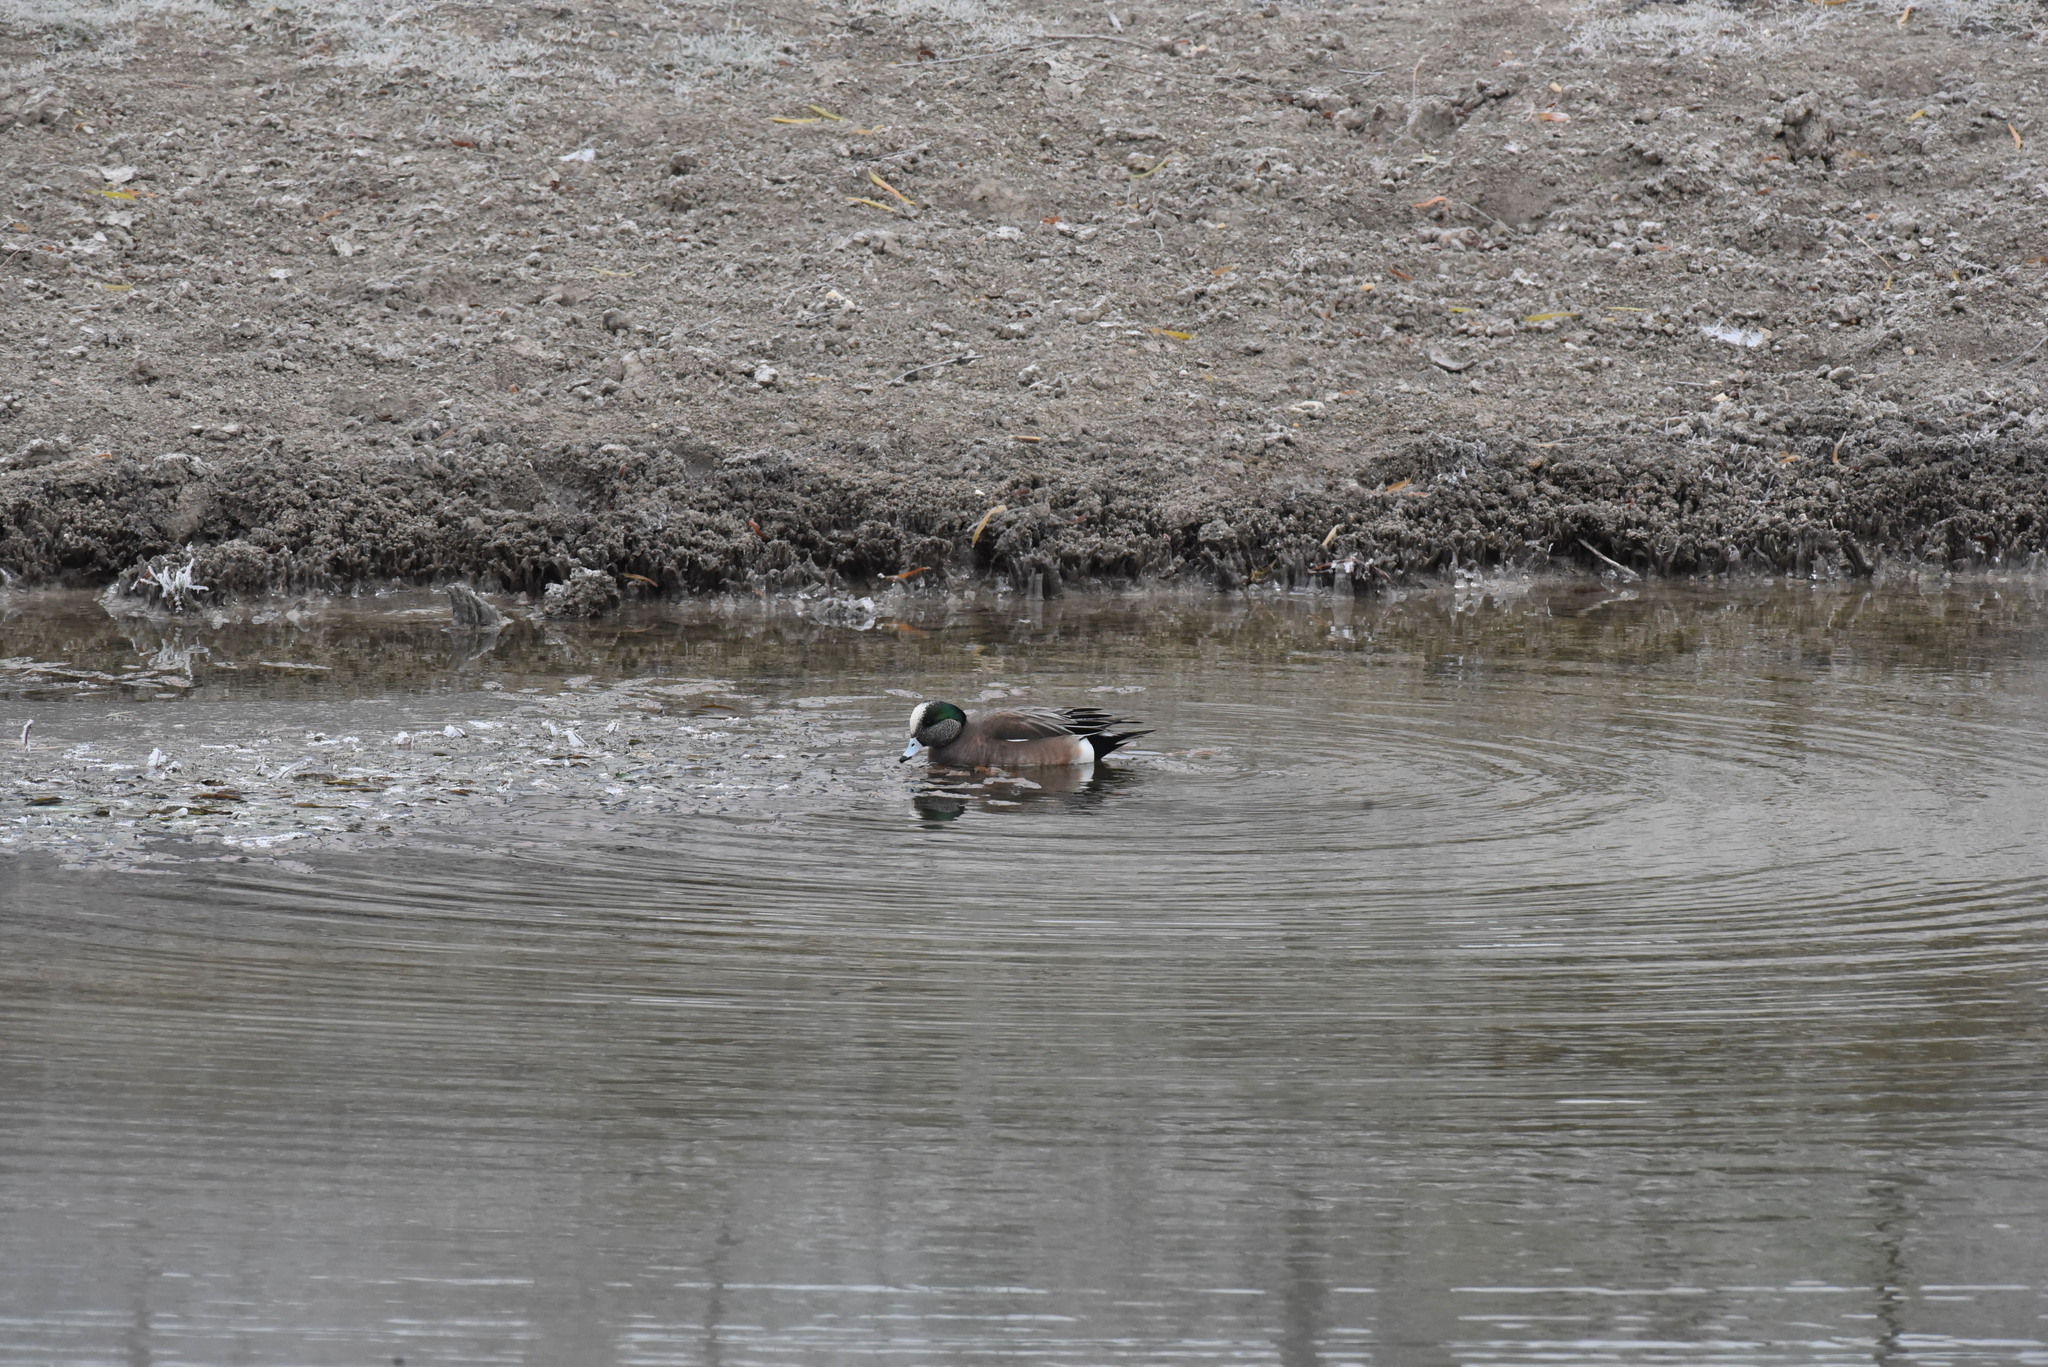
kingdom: Animalia
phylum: Chordata
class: Aves
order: Anseriformes
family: Anatidae
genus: Mareca
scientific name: Mareca americana
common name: American wigeon
